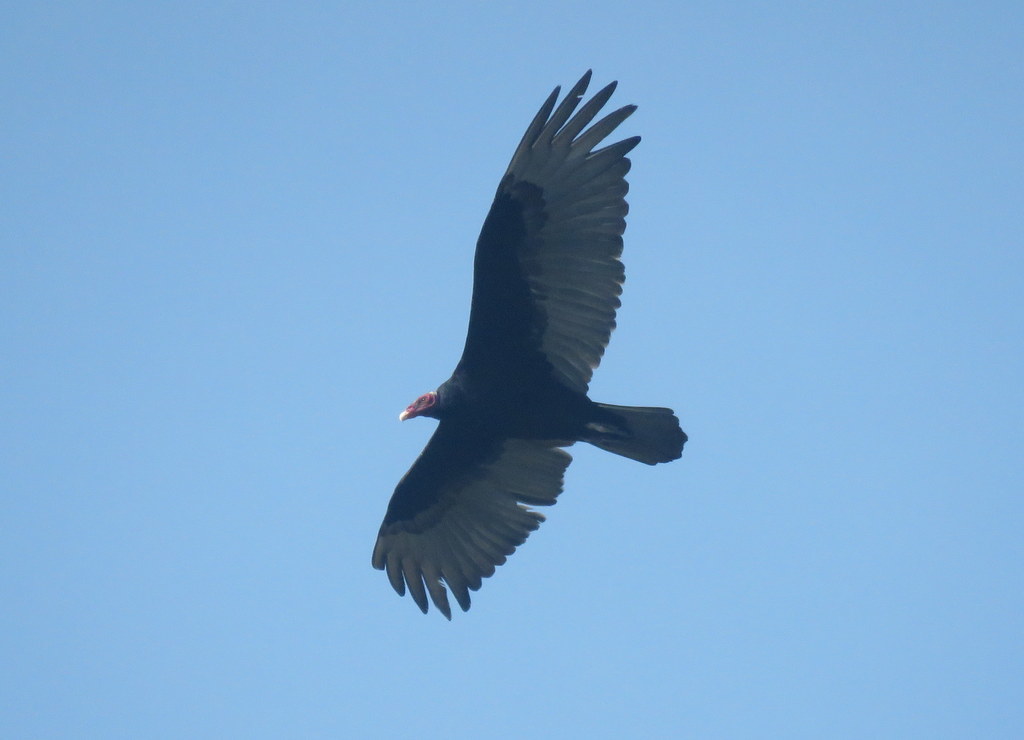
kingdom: Animalia
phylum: Chordata
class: Aves
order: Accipitriformes
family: Cathartidae
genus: Cathartes
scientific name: Cathartes aura
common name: Turkey vulture
